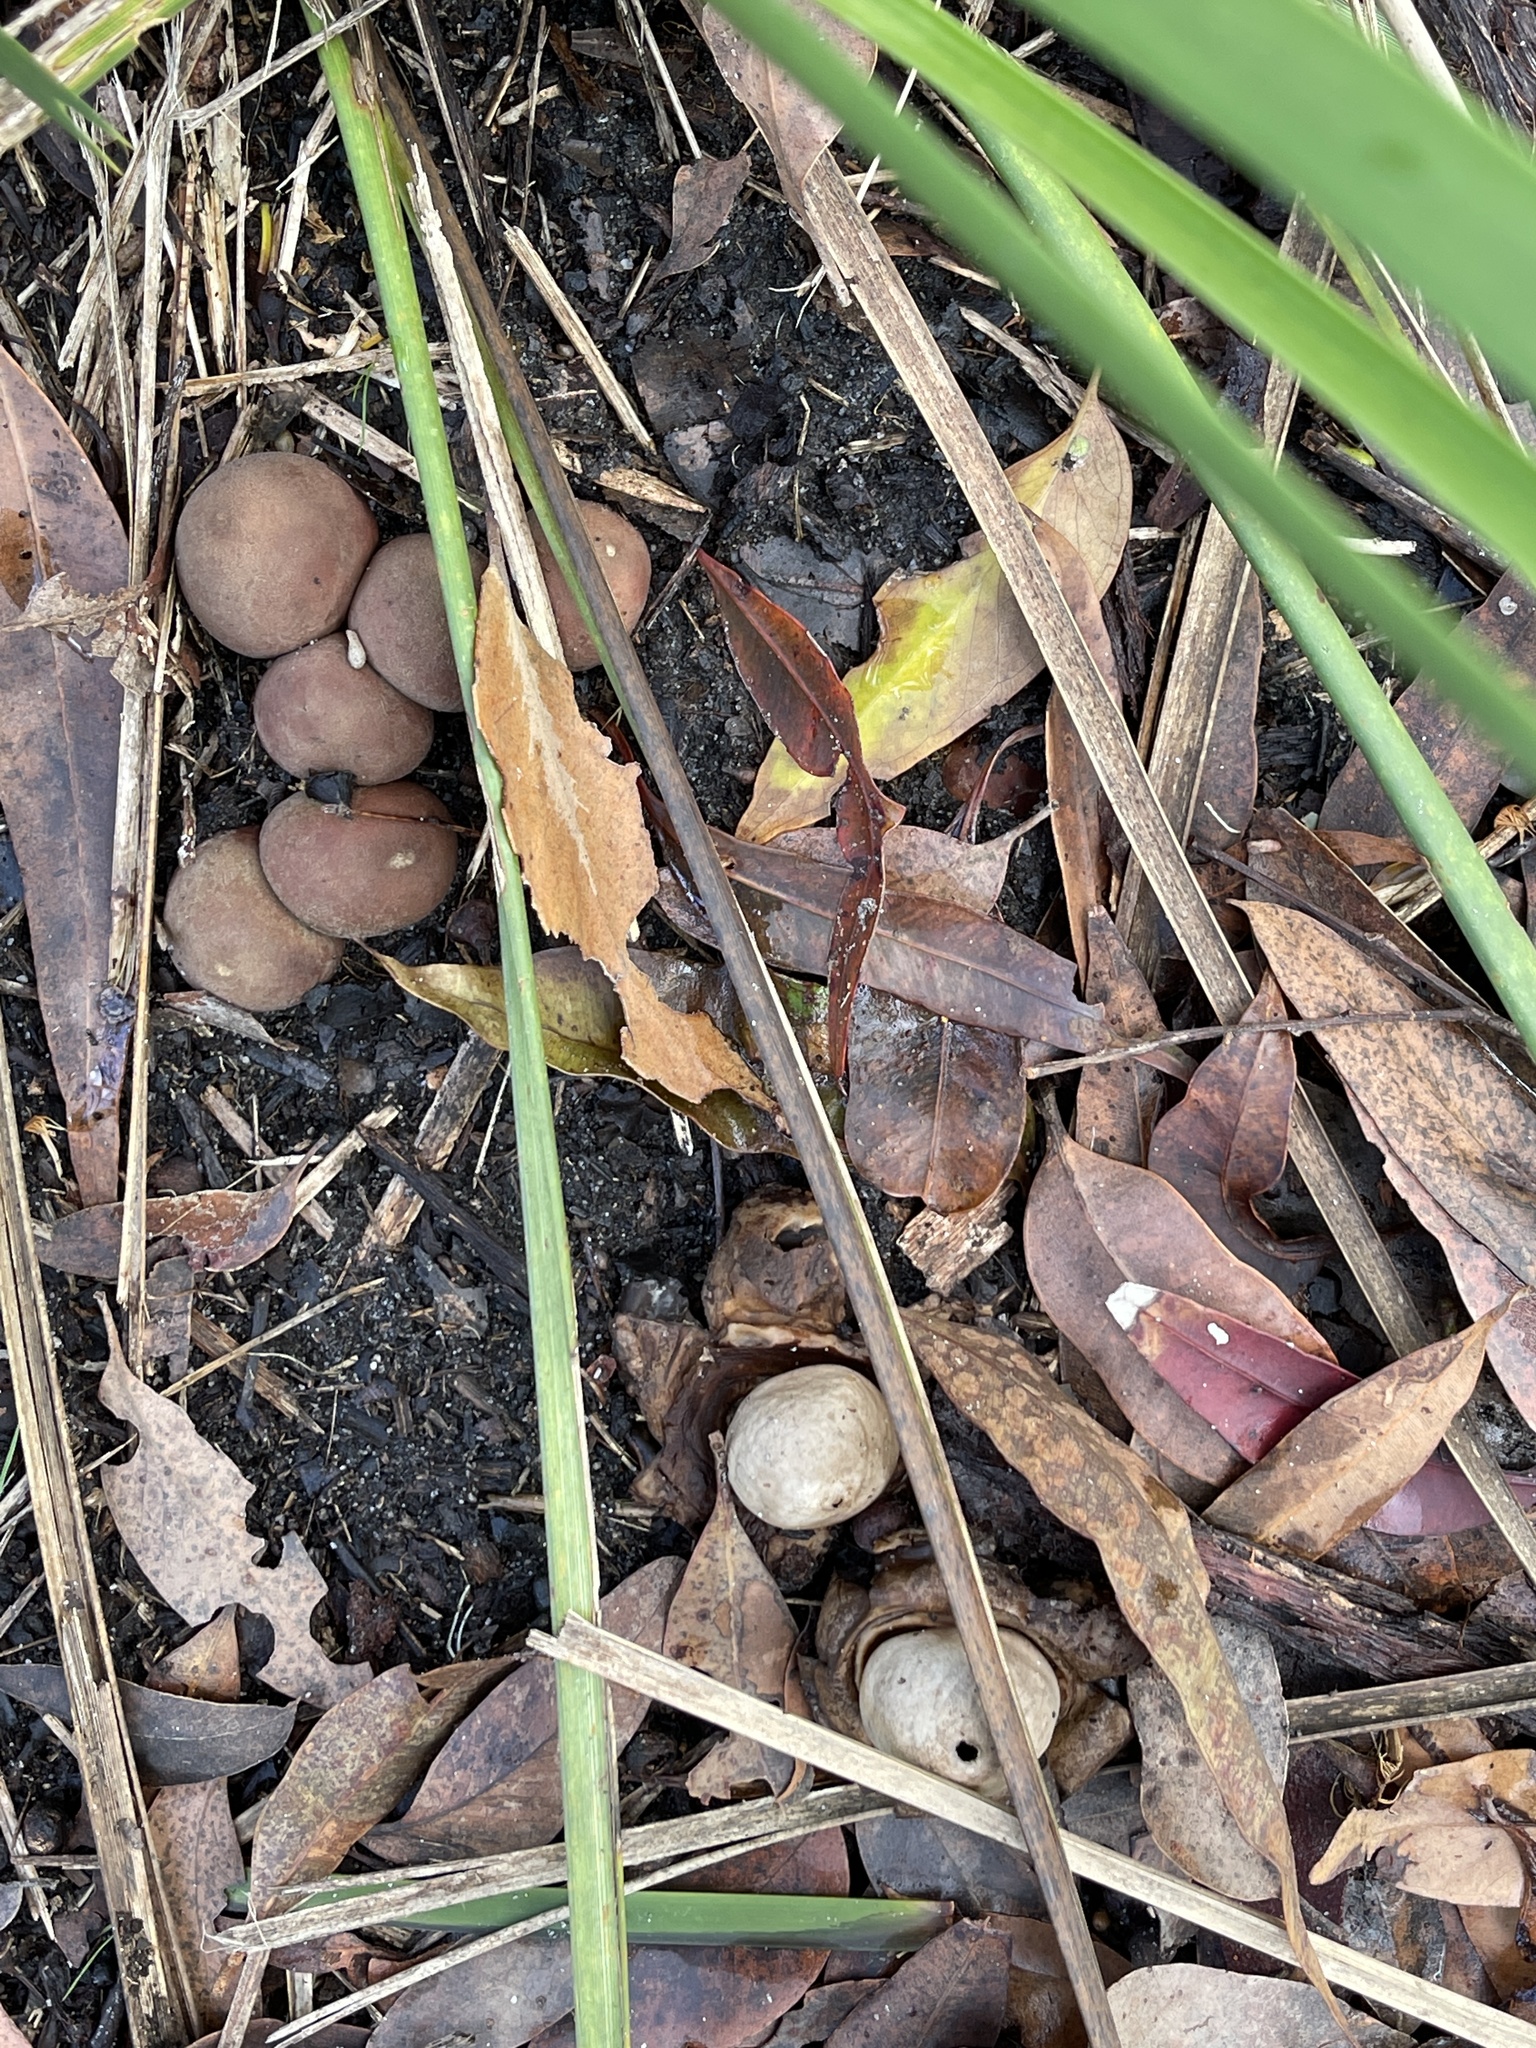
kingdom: Fungi
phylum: Basidiomycota
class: Agaricomycetes
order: Geastrales
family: Geastraceae
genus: Geastrum
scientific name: Geastrum triplex
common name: Collared earthstar
